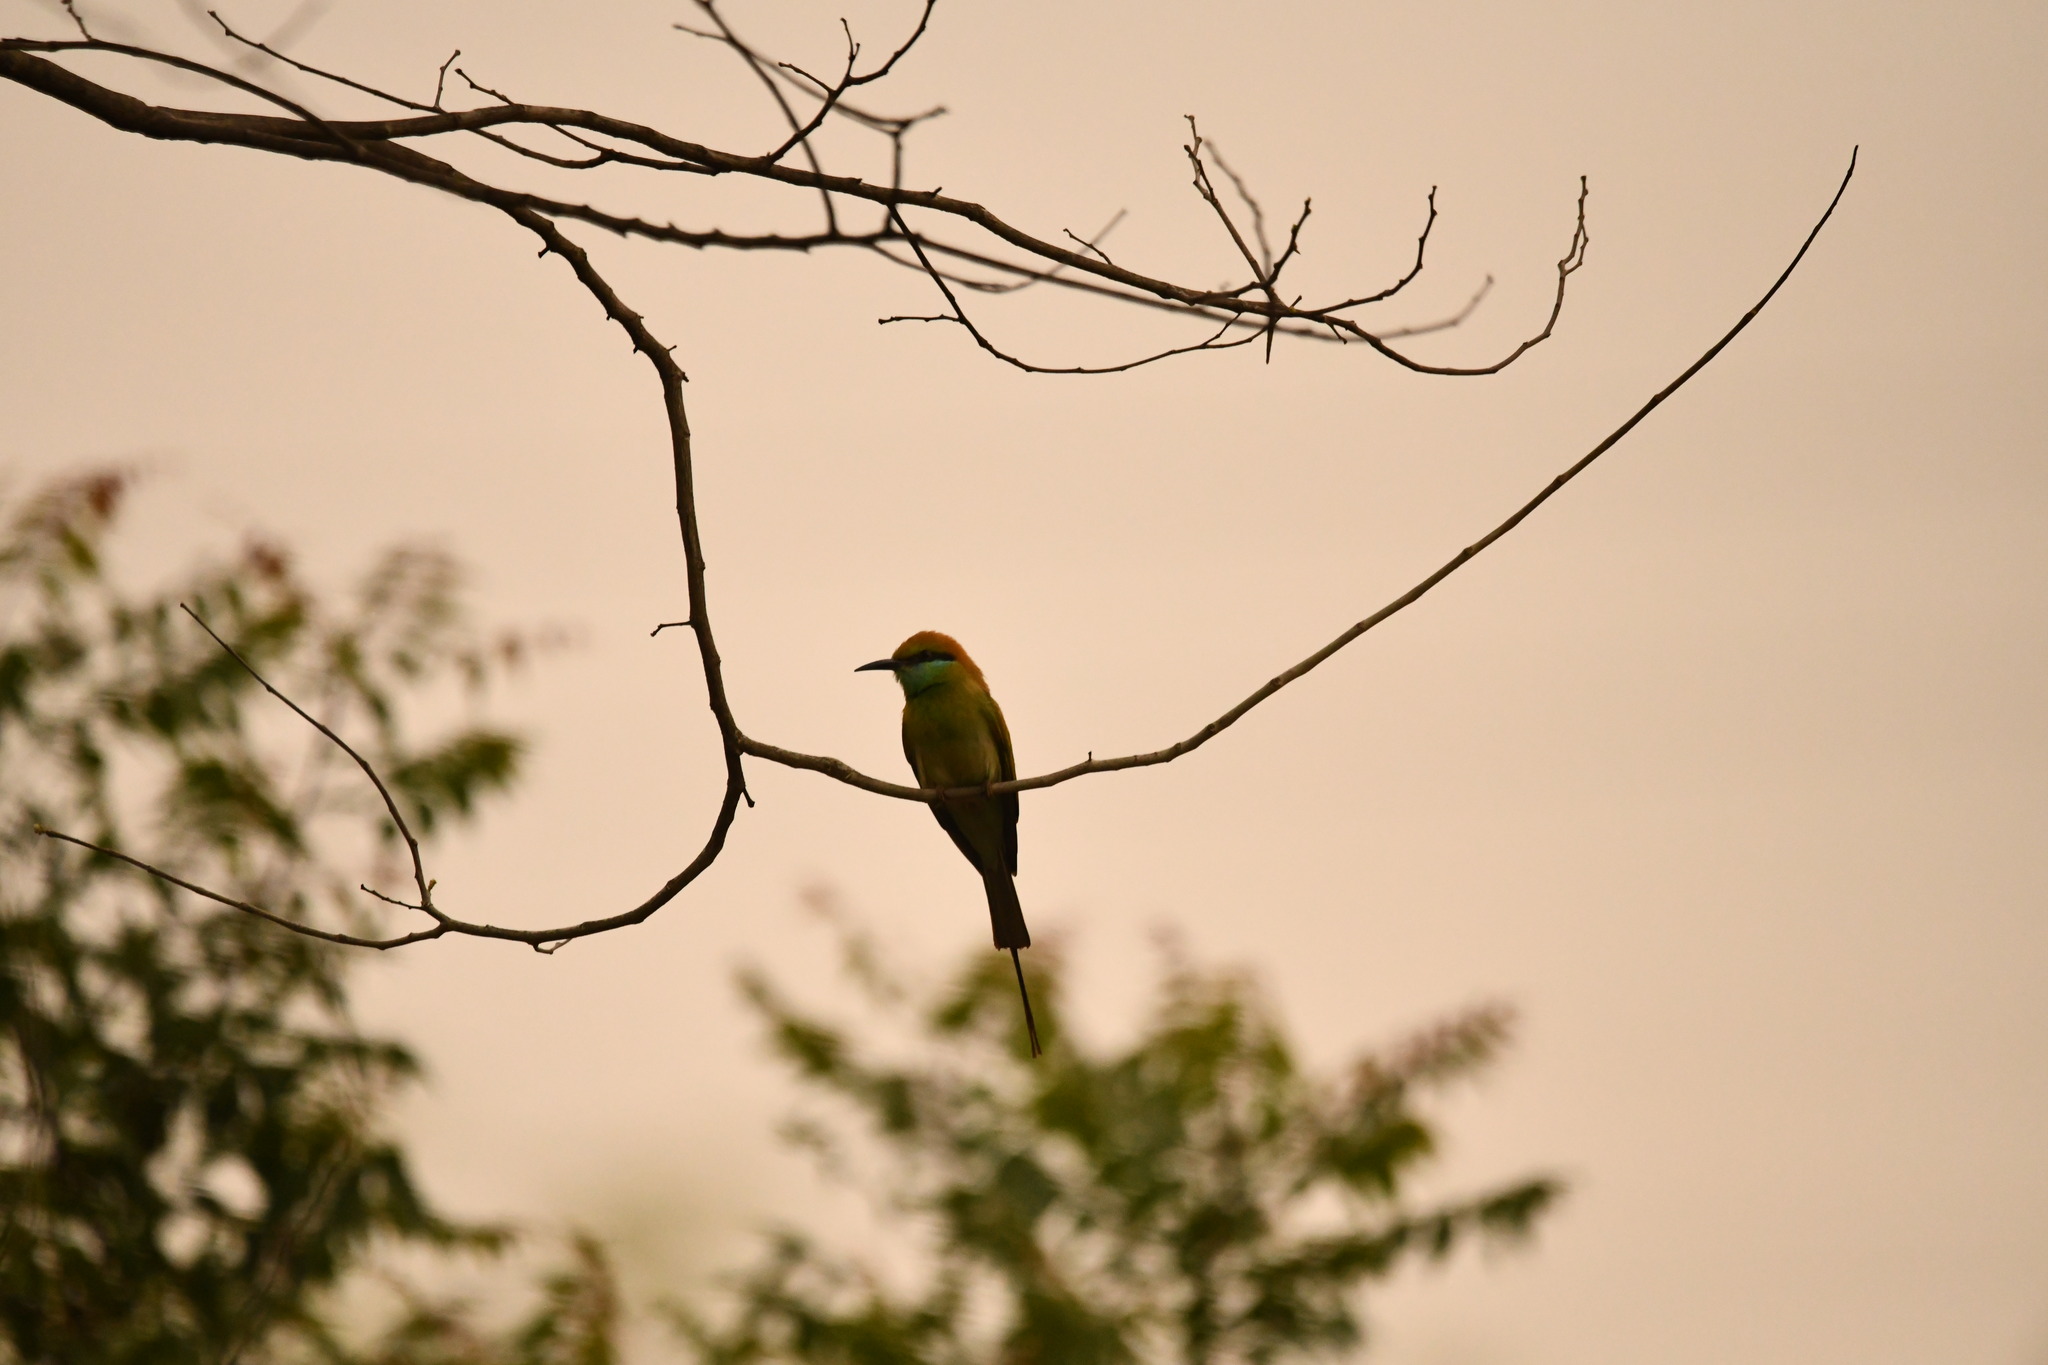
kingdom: Animalia
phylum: Chordata
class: Aves
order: Coraciiformes
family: Meropidae
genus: Merops
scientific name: Merops orientalis
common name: Green bee-eater
